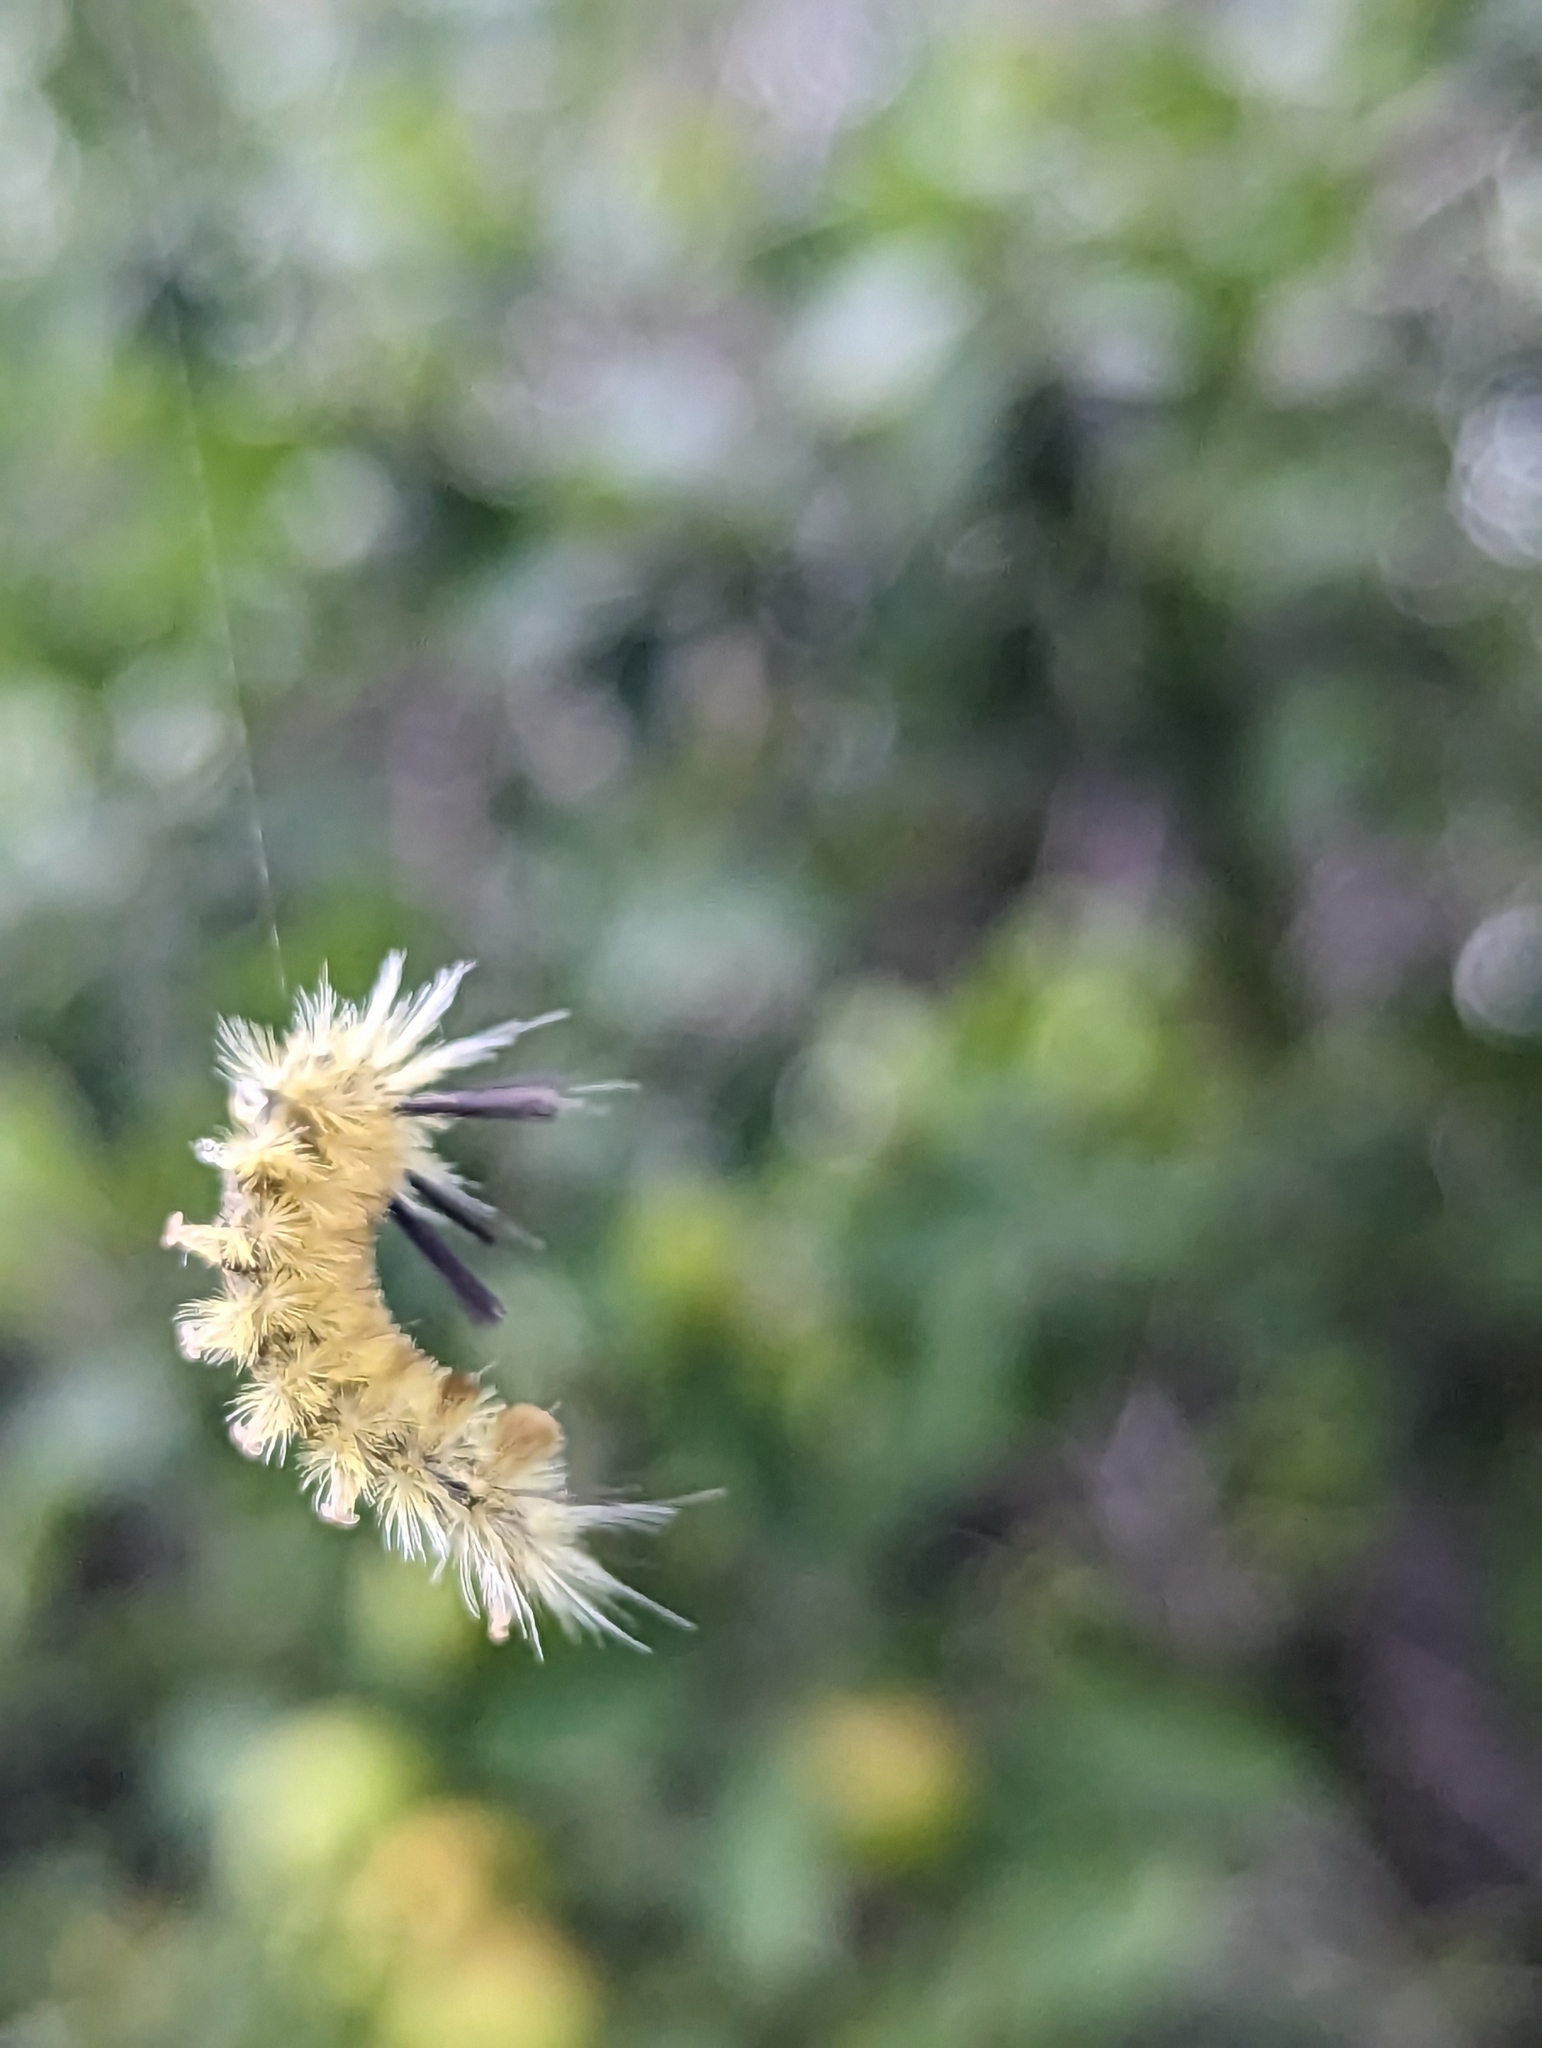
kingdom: Animalia
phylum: Arthropoda
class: Insecta
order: Lepidoptera
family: Erebidae
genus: Halysidota
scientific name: Halysidota tessellaris
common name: Banded tussock moth
